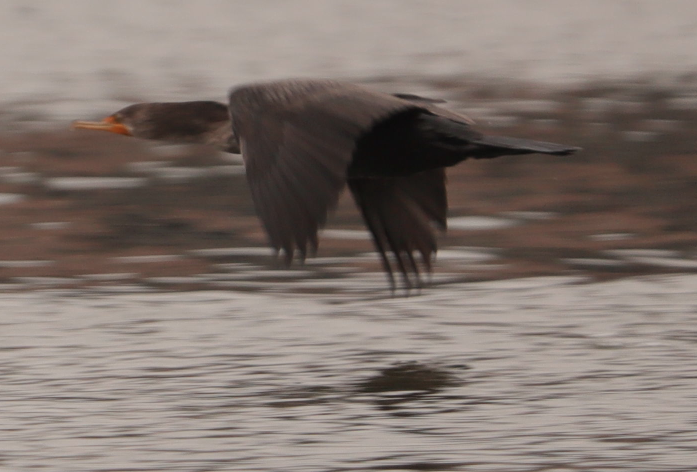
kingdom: Animalia
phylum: Chordata
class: Aves
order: Suliformes
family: Phalacrocoracidae
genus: Phalacrocorax
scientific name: Phalacrocorax auritus
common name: Double-crested cormorant
